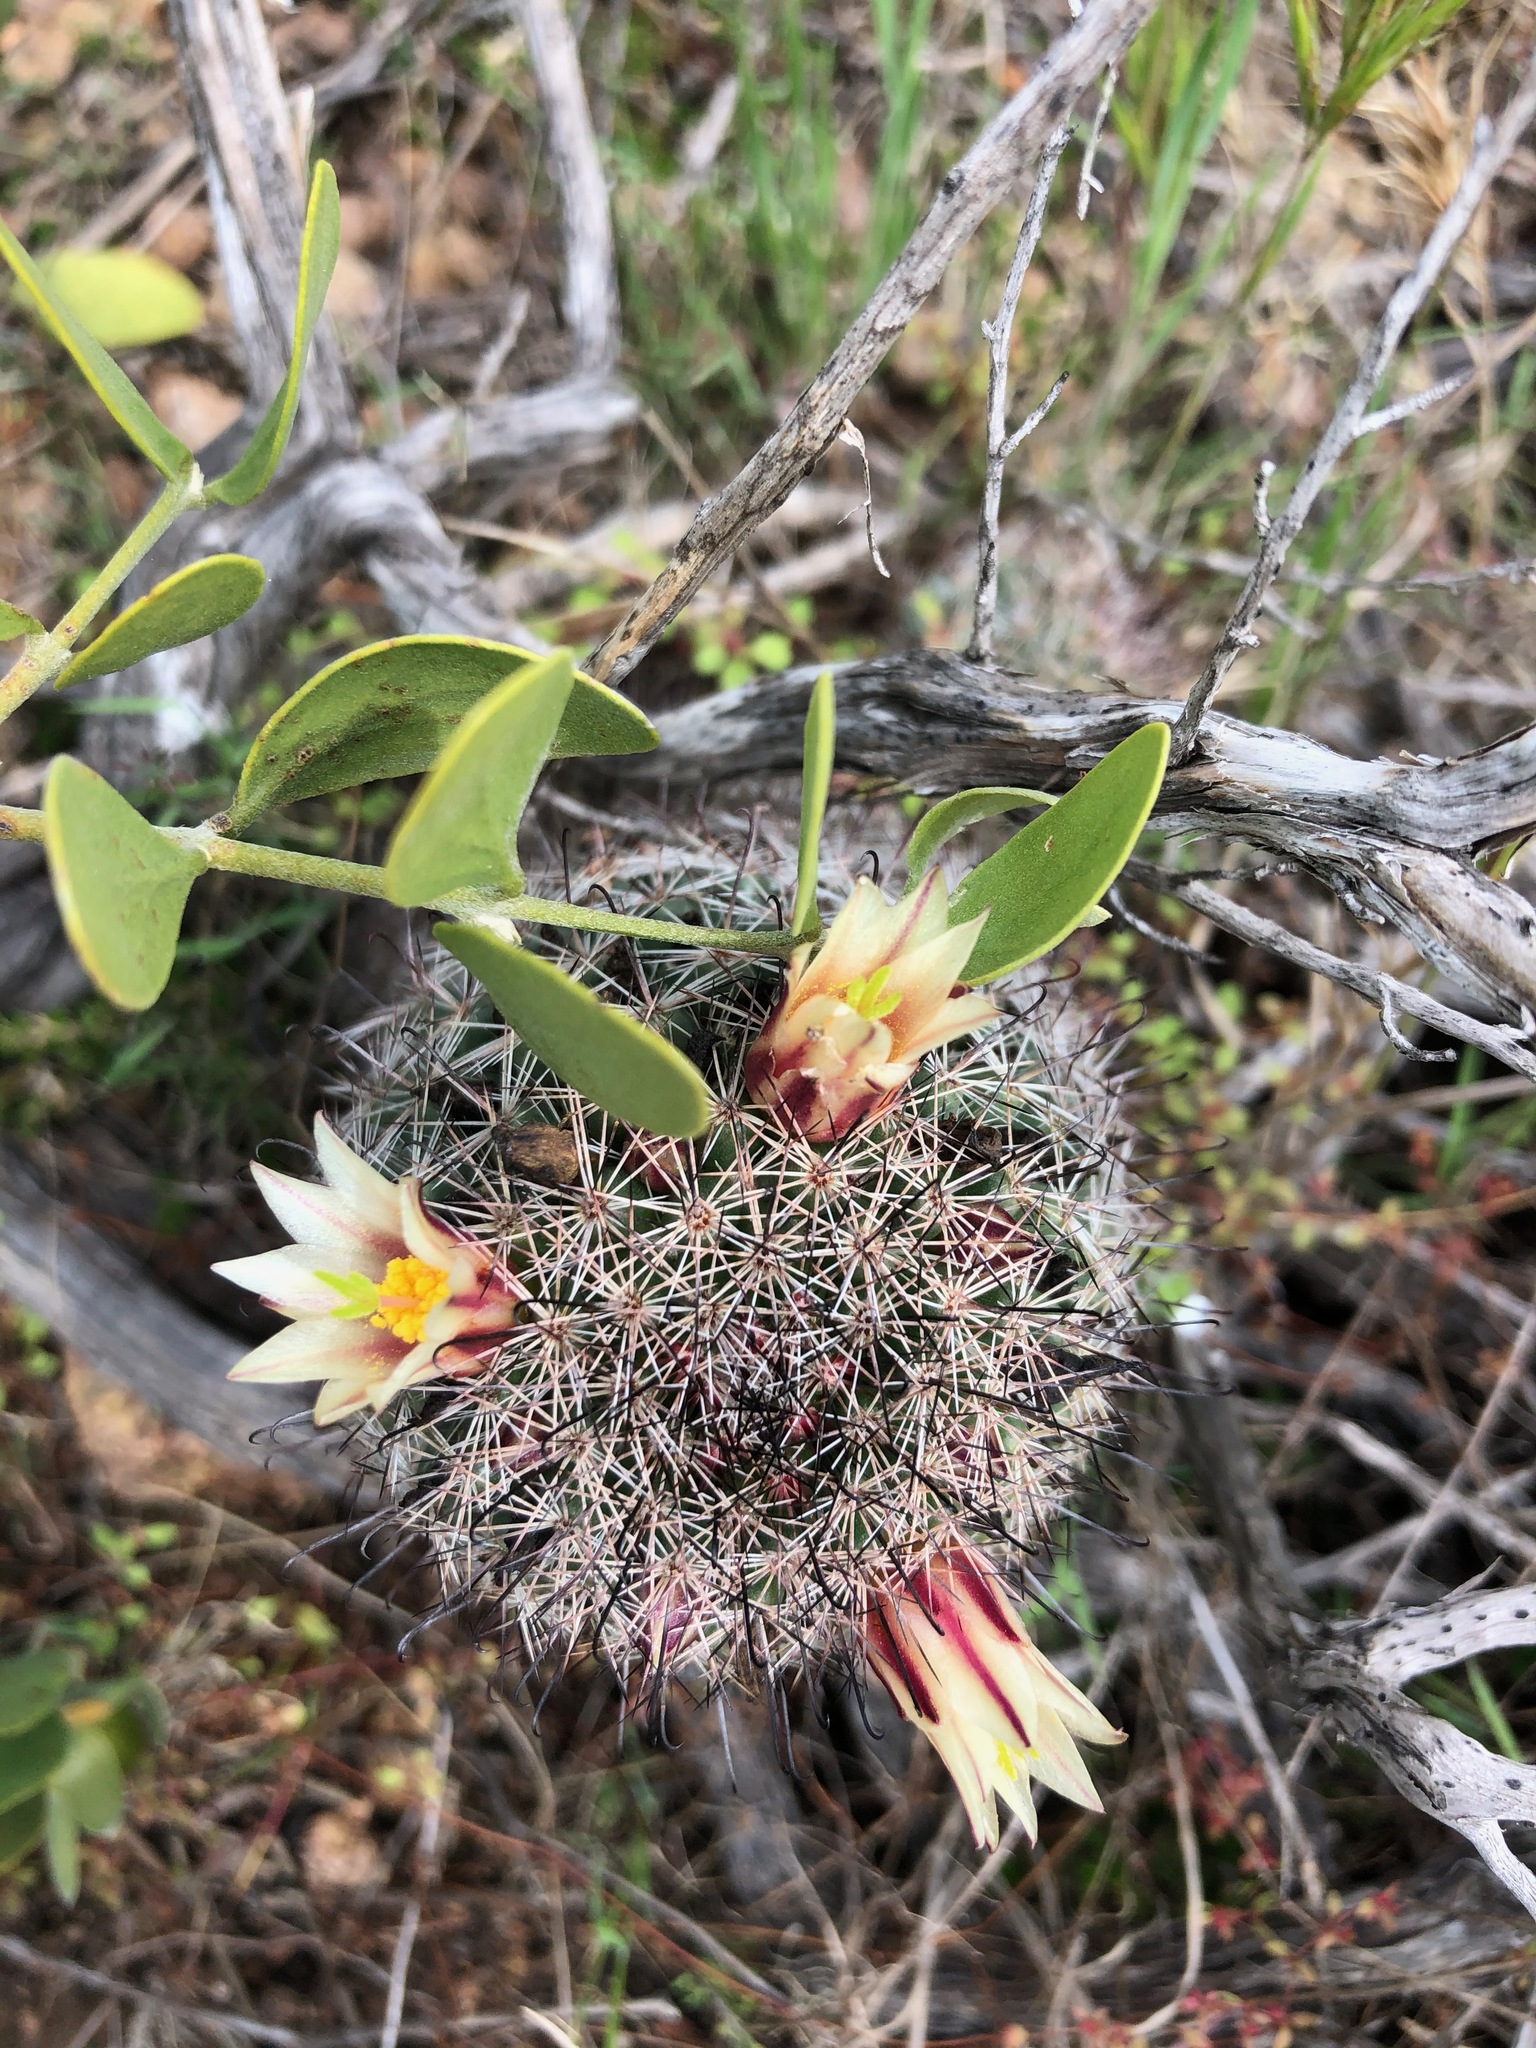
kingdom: Plantae
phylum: Tracheophyta
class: Magnoliopsida
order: Caryophyllales
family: Cactaceae
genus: Cochemiea
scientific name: Cochemiea dioica
